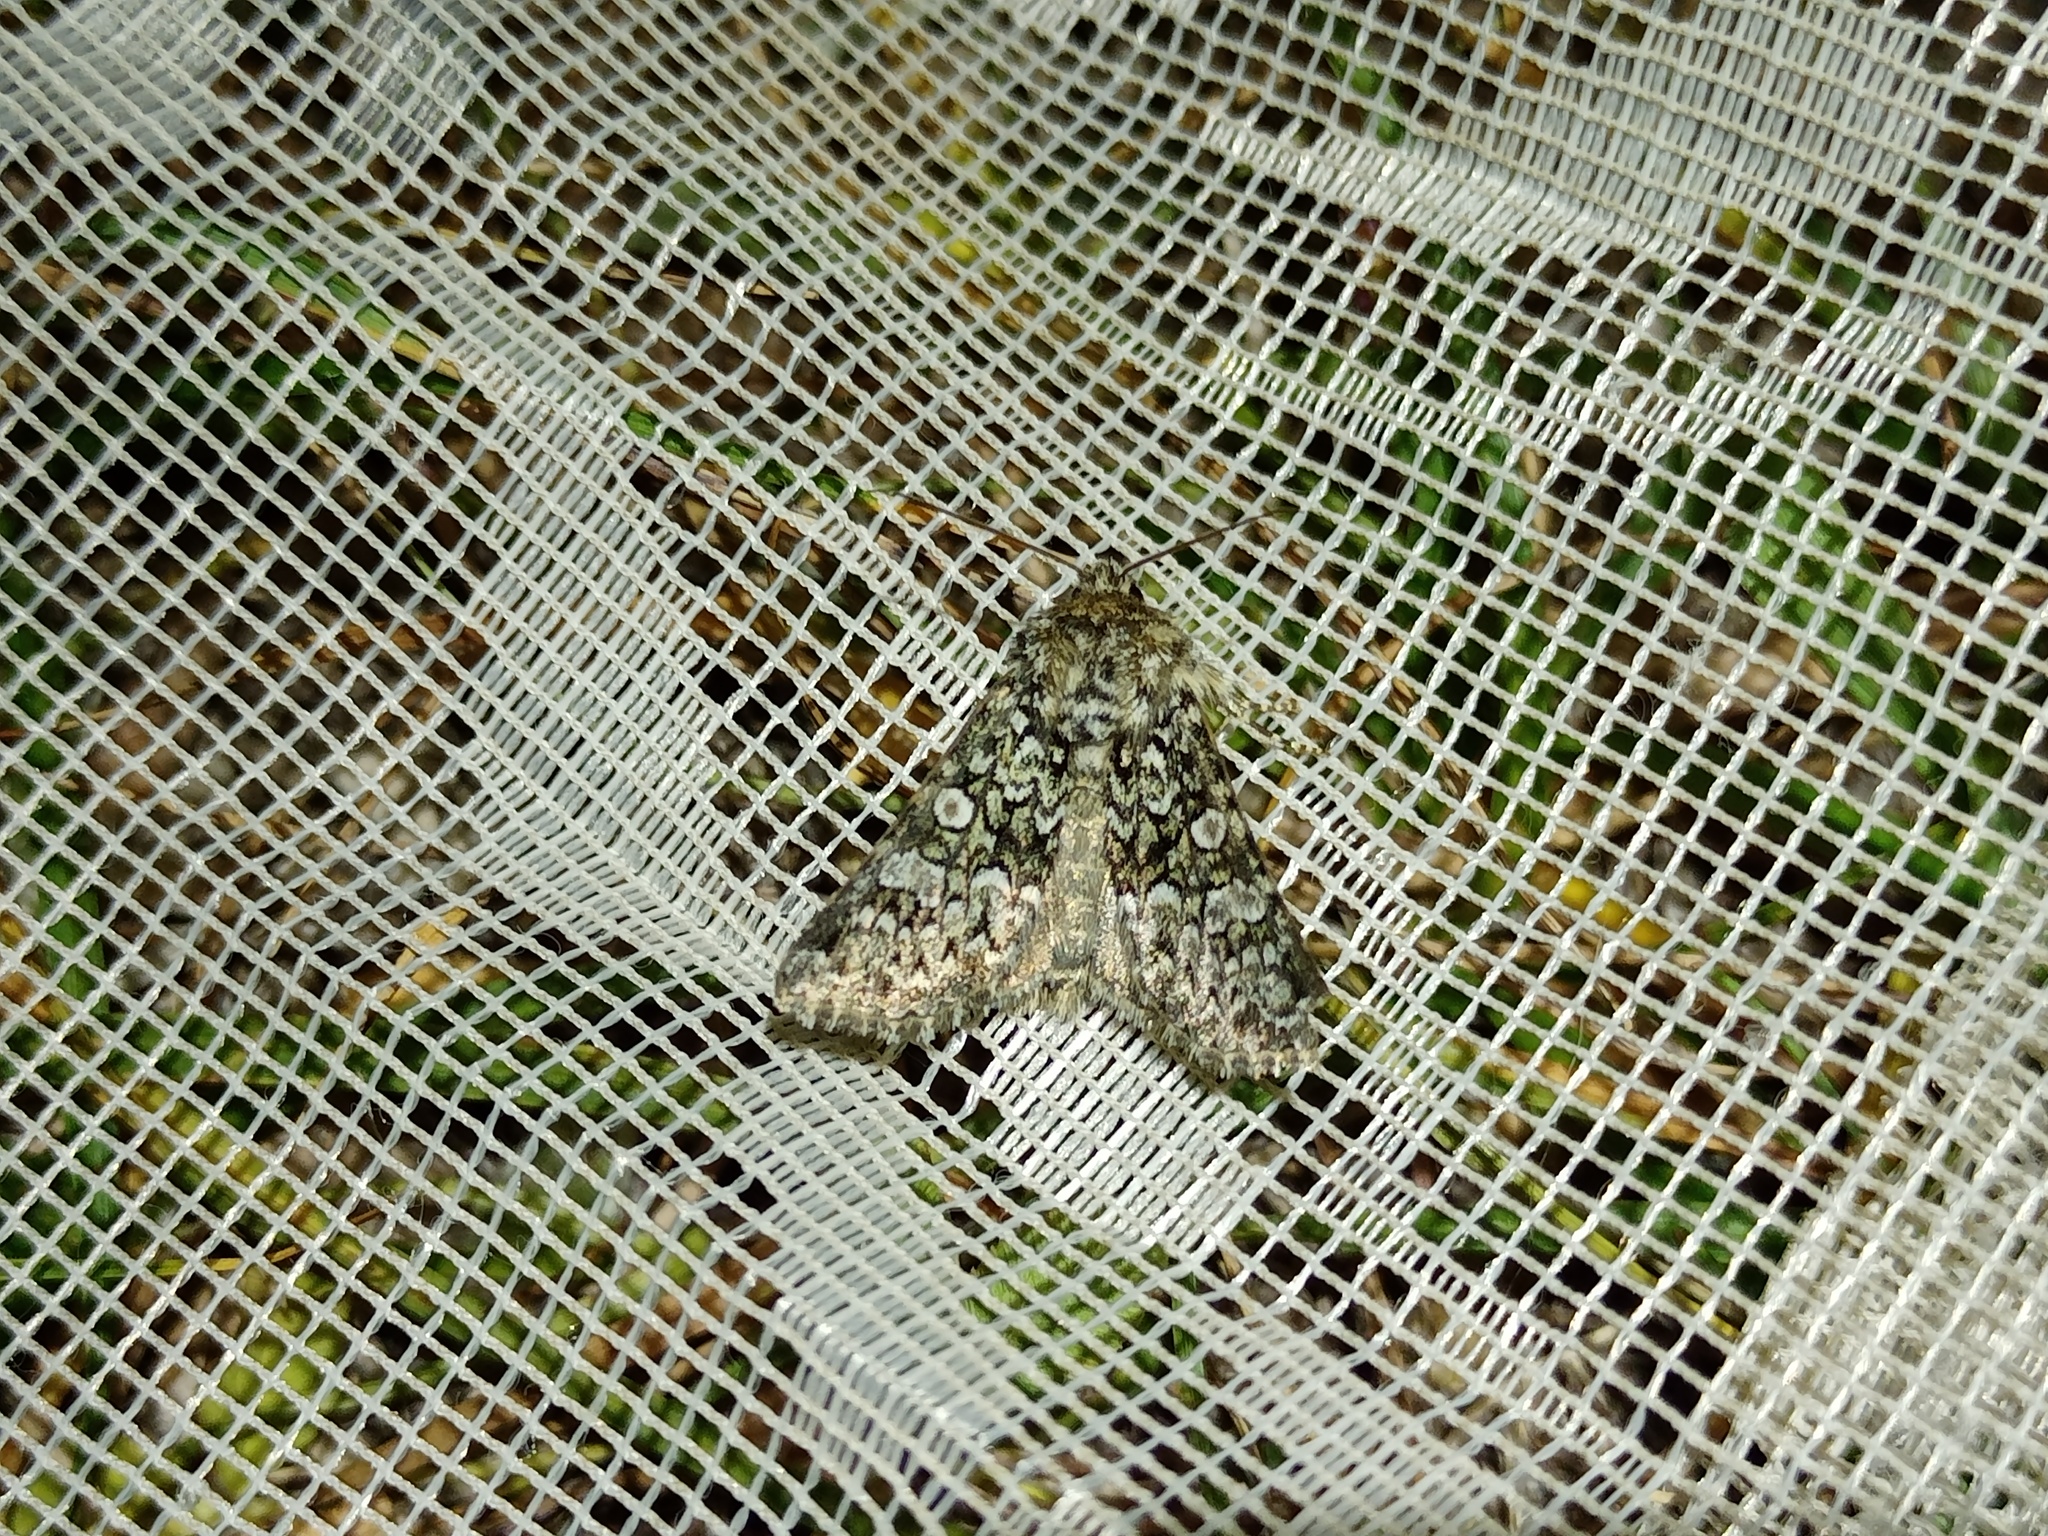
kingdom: Animalia
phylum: Arthropoda
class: Insecta
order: Lepidoptera
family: Noctuidae
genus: Hadena
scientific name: Hadena tephroleuca
